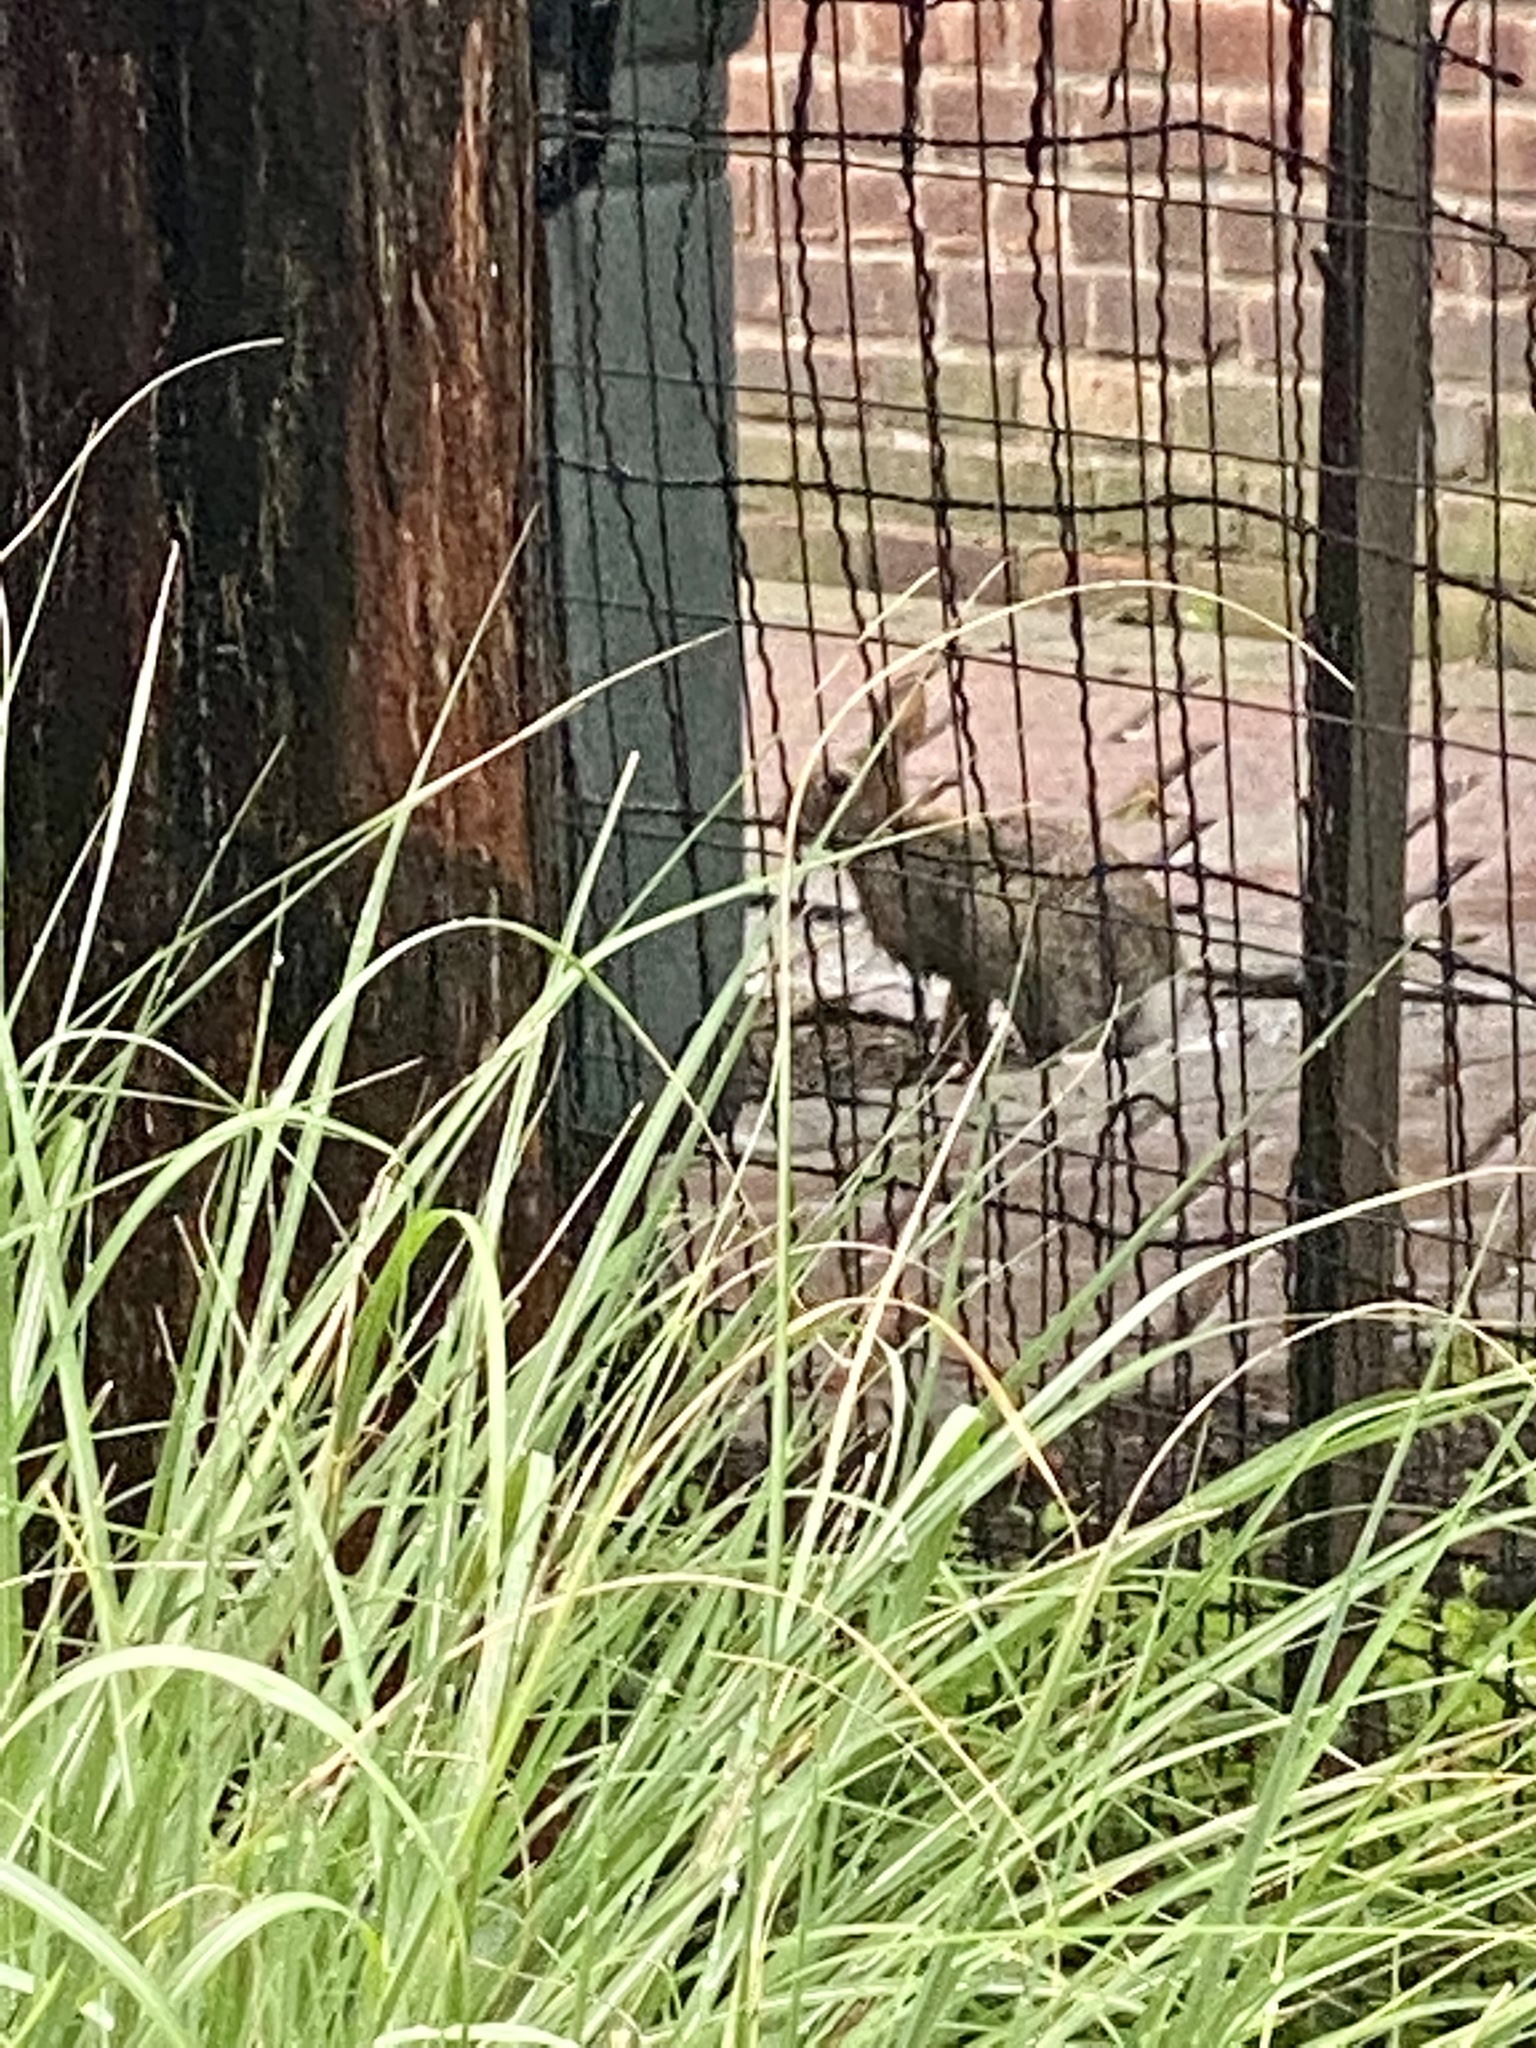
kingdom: Animalia
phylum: Chordata
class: Mammalia
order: Lagomorpha
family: Leporidae
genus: Sylvilagus
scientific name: Sylvilagus floridanus
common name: Eastern cottontail
